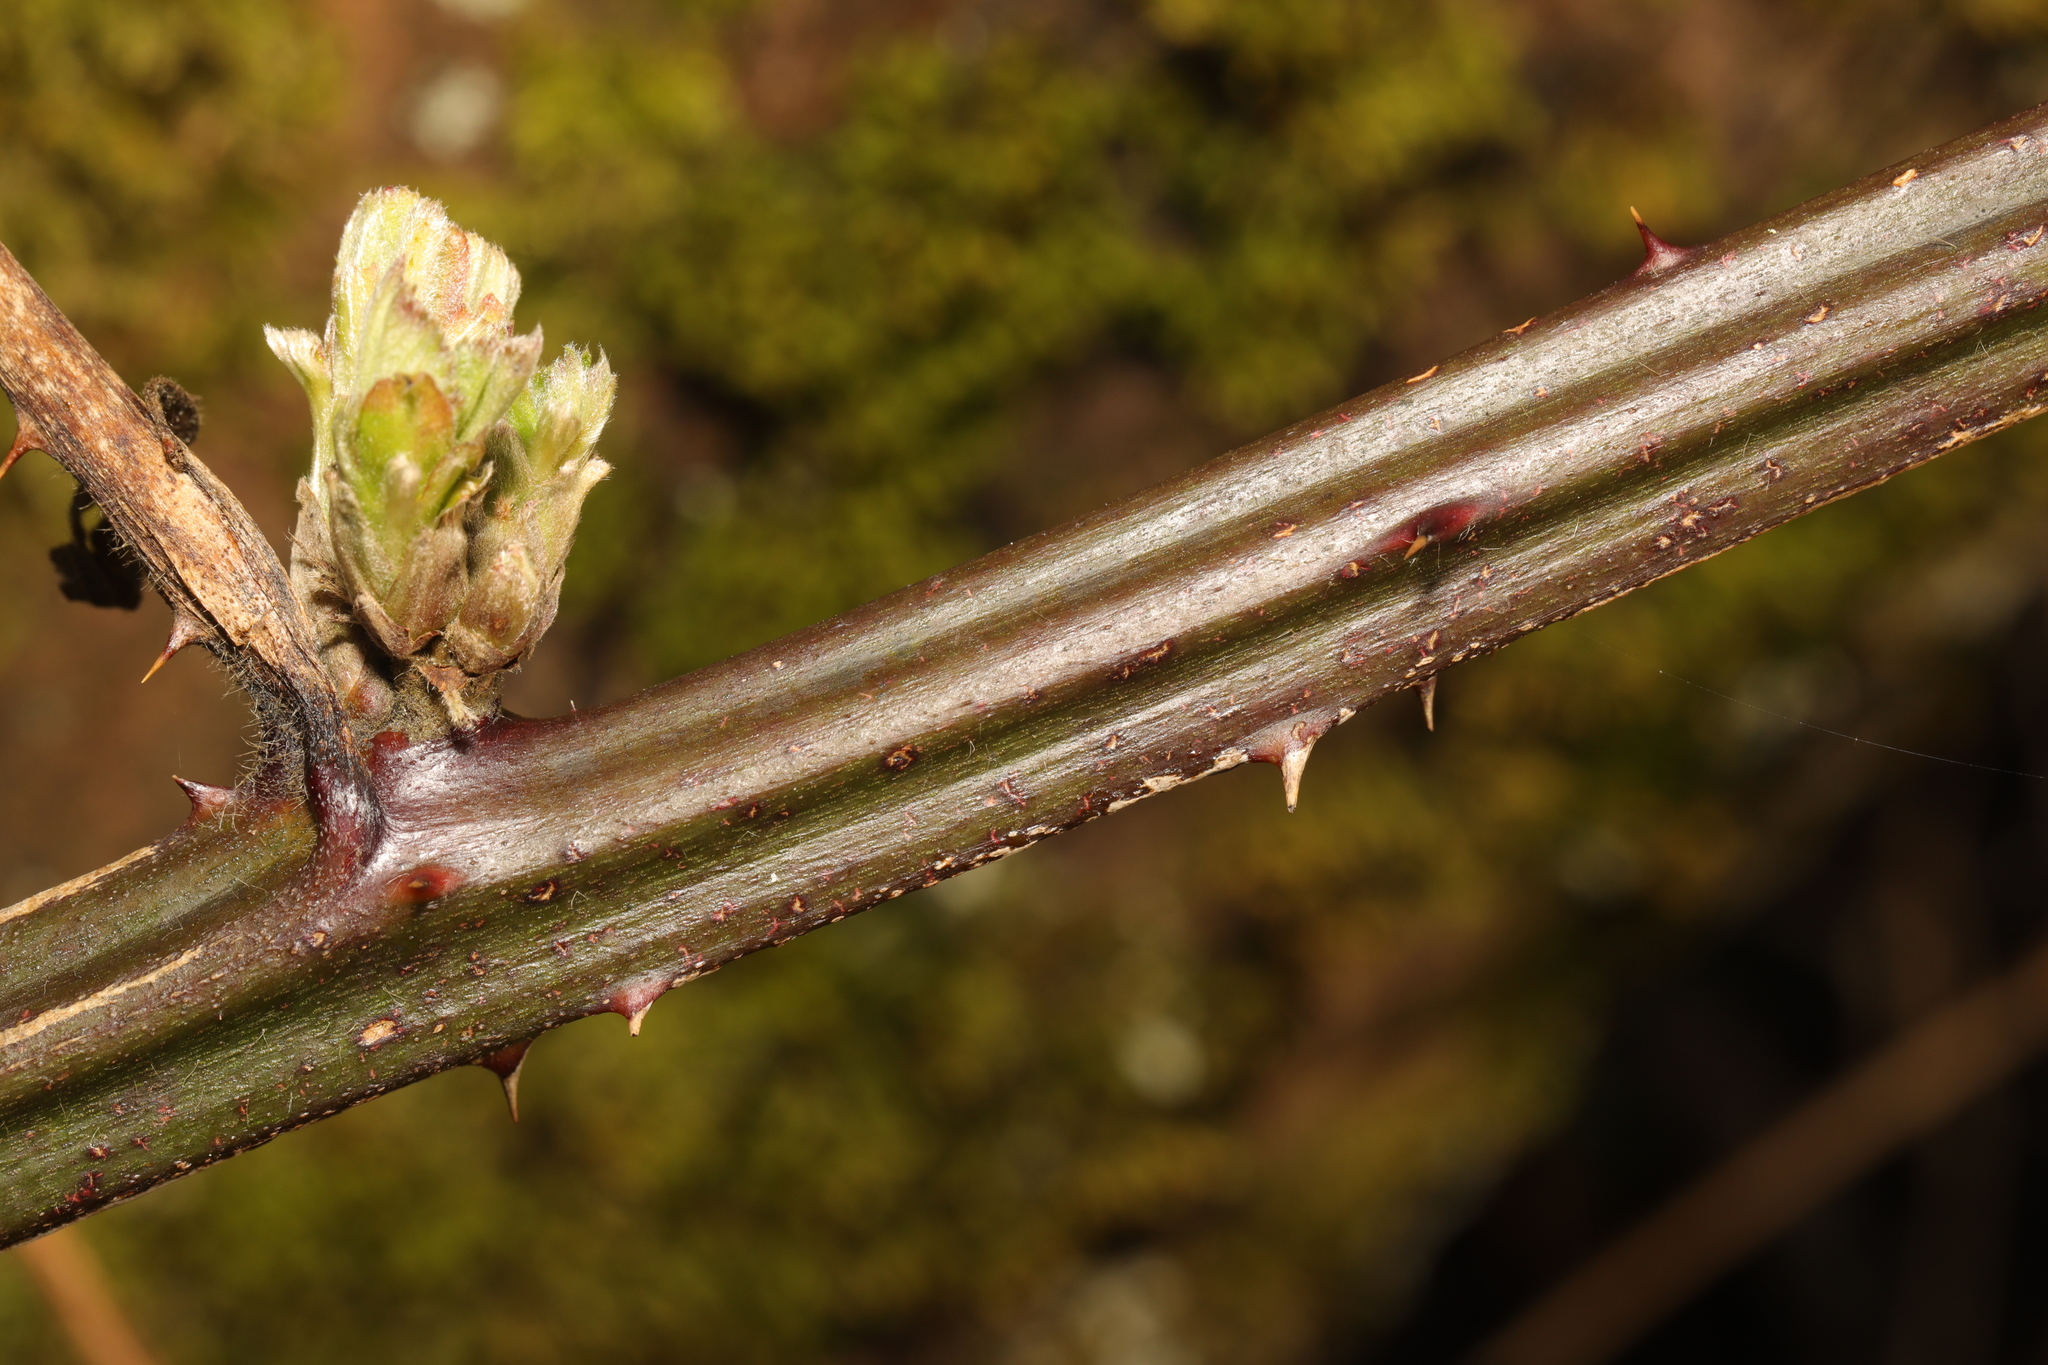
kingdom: Plantae
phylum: Tracheophyta
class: Magnoliopsida
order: Rosales
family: Rosaceae
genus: Rubus
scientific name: Rubus armeniacus
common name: Himalayan blackberry
